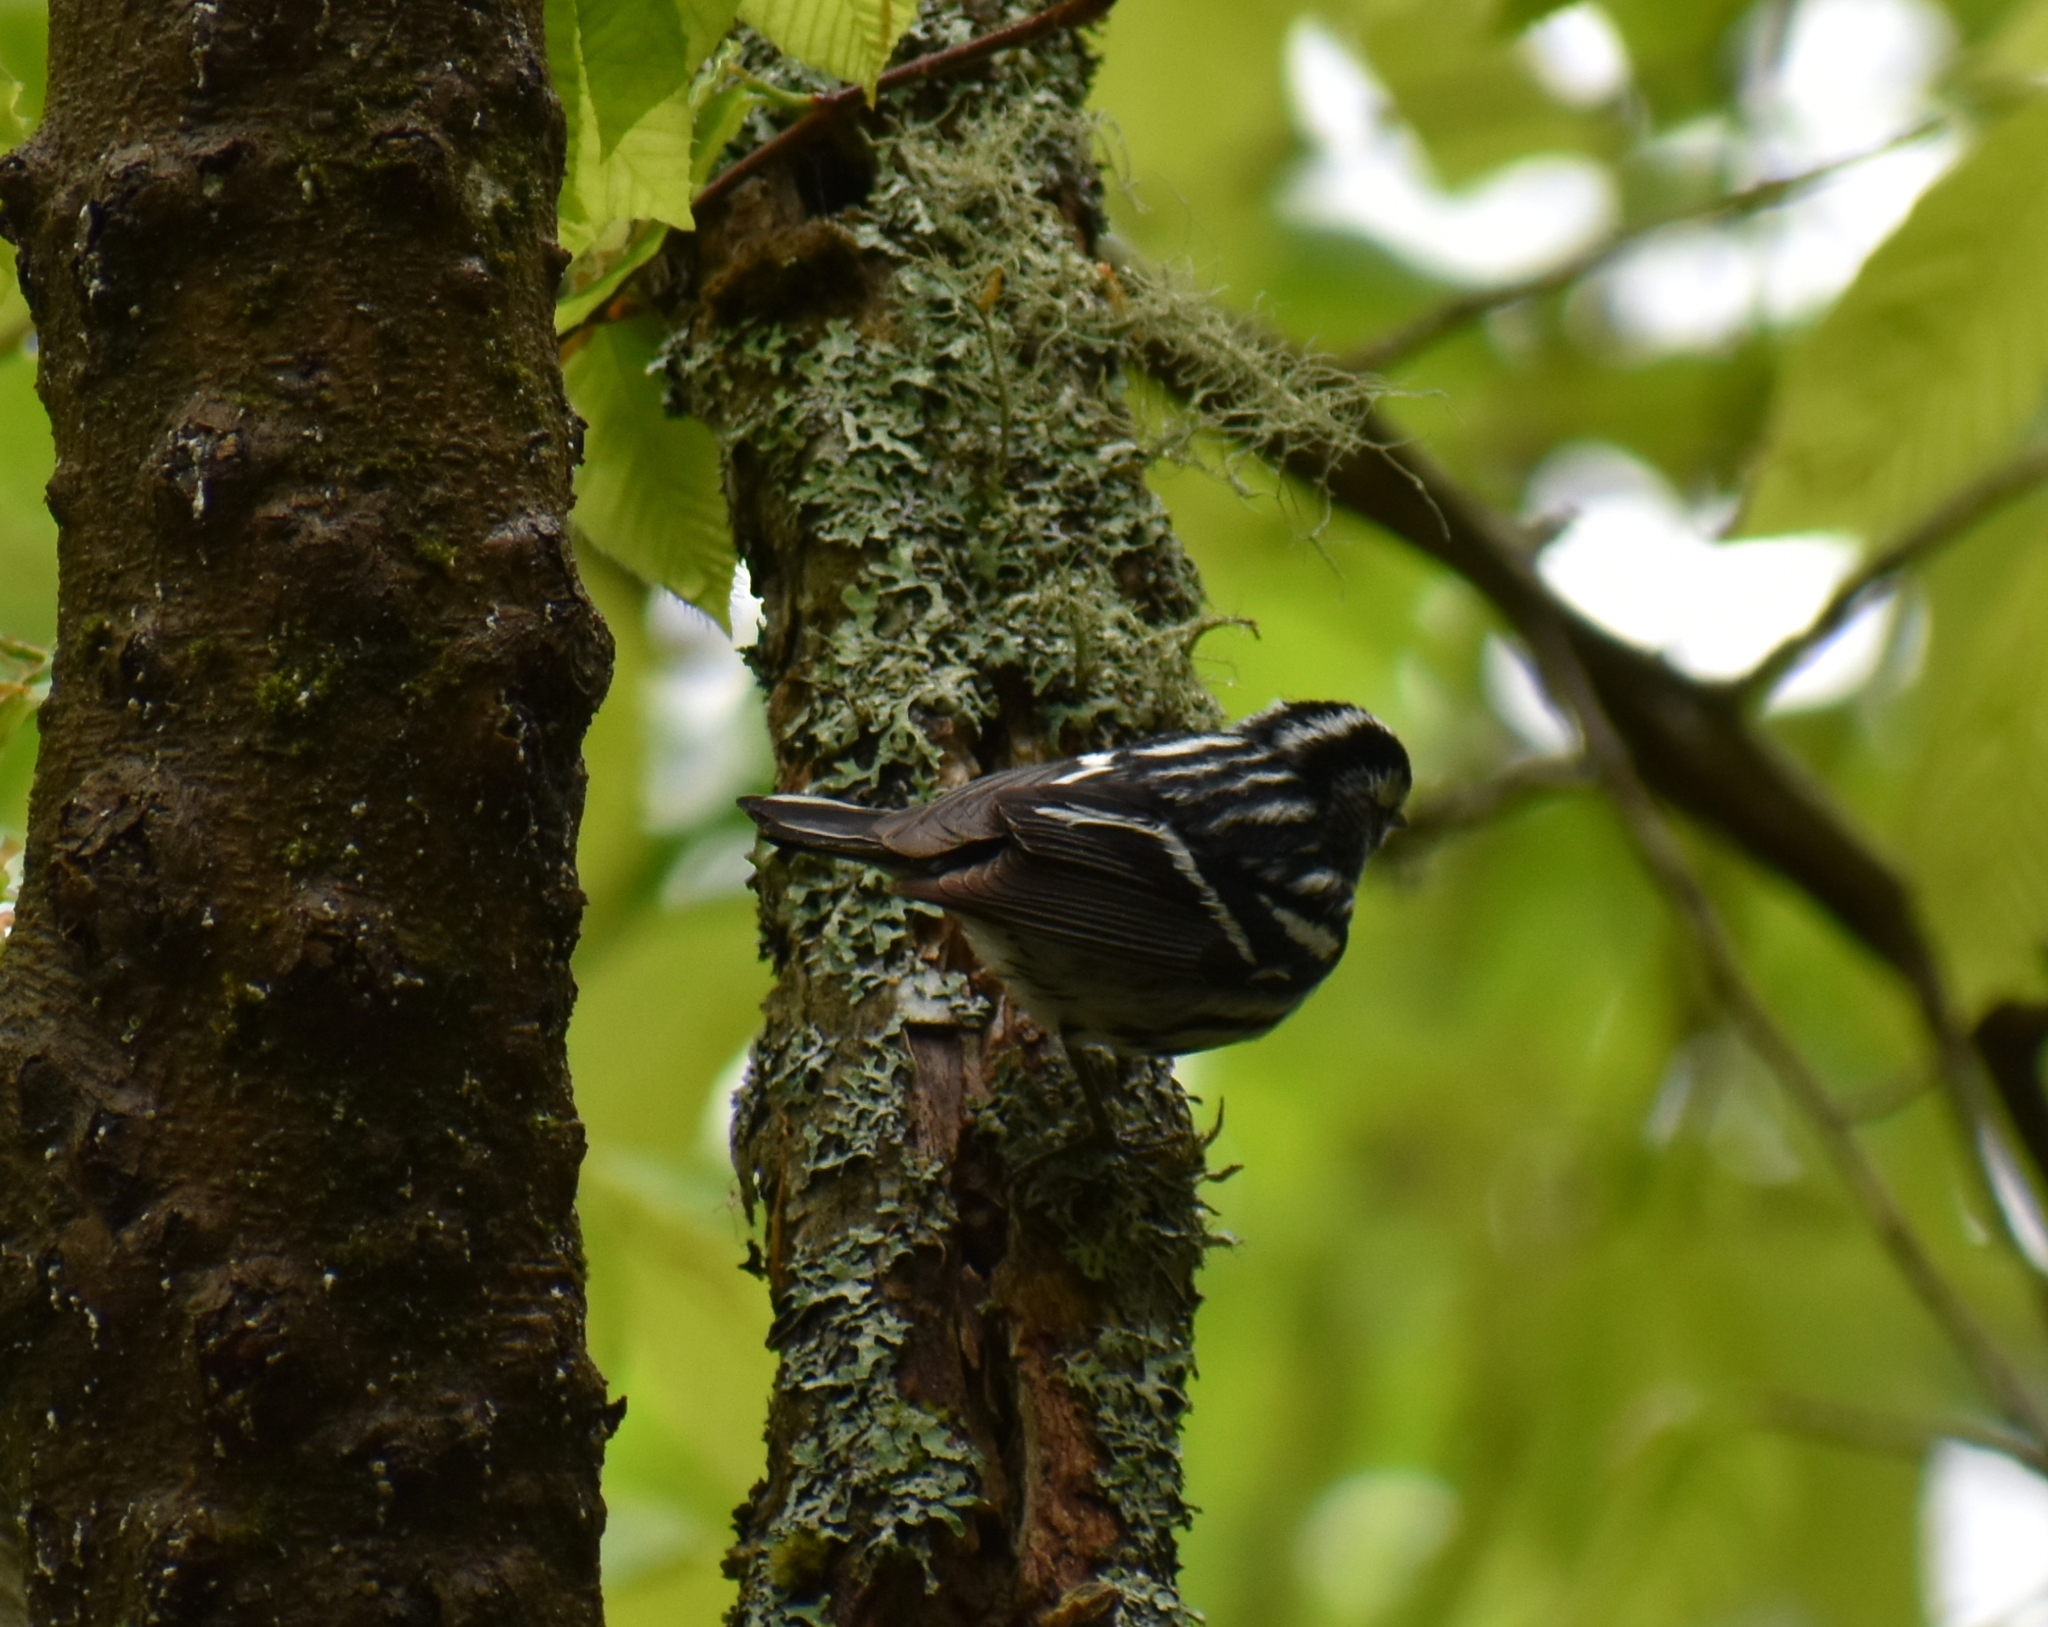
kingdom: Animalia
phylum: Chordata
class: Aves
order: Passeriformes
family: Parulidae
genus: Mniotilta
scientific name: Mniotilta varia
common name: Black-and-white warbler
